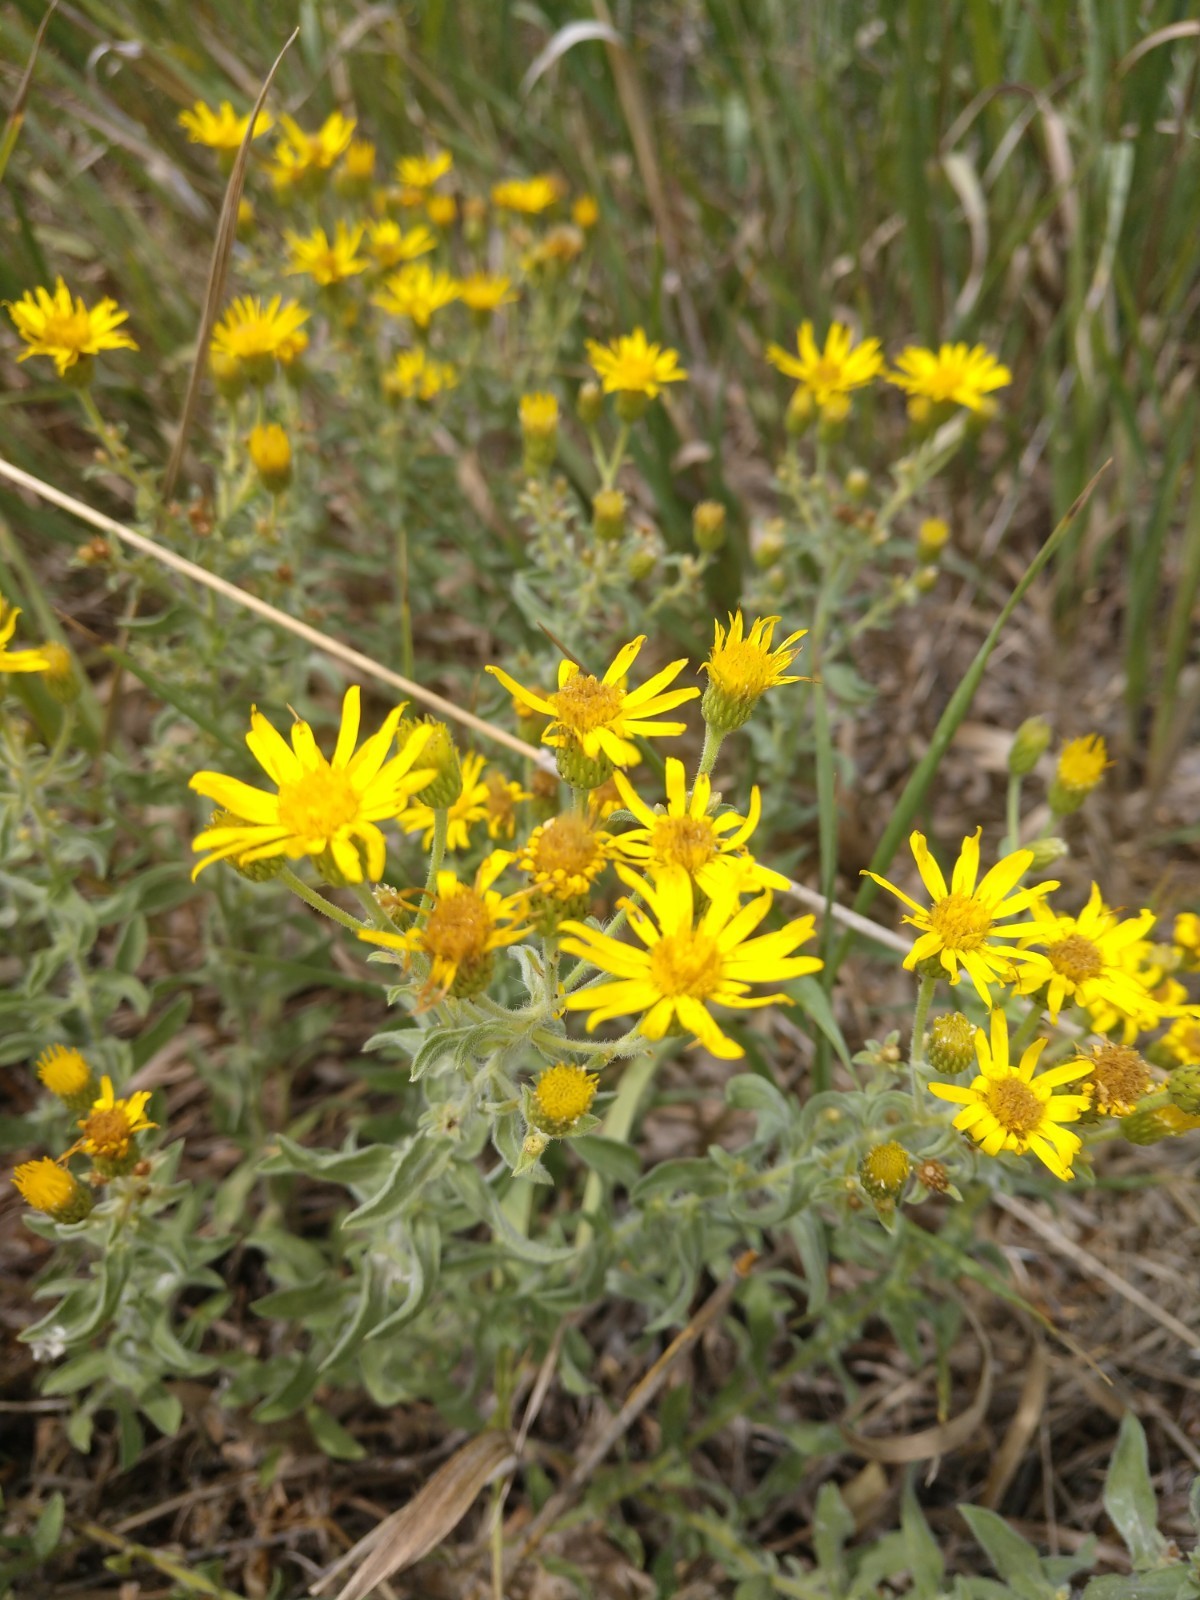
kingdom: Plantae
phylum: Tracheophyta
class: Magnoliopsida
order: Asterales
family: Asteraceae
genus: Heterotheca
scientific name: Heterotheca villosa
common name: Hairy false goldenaster
